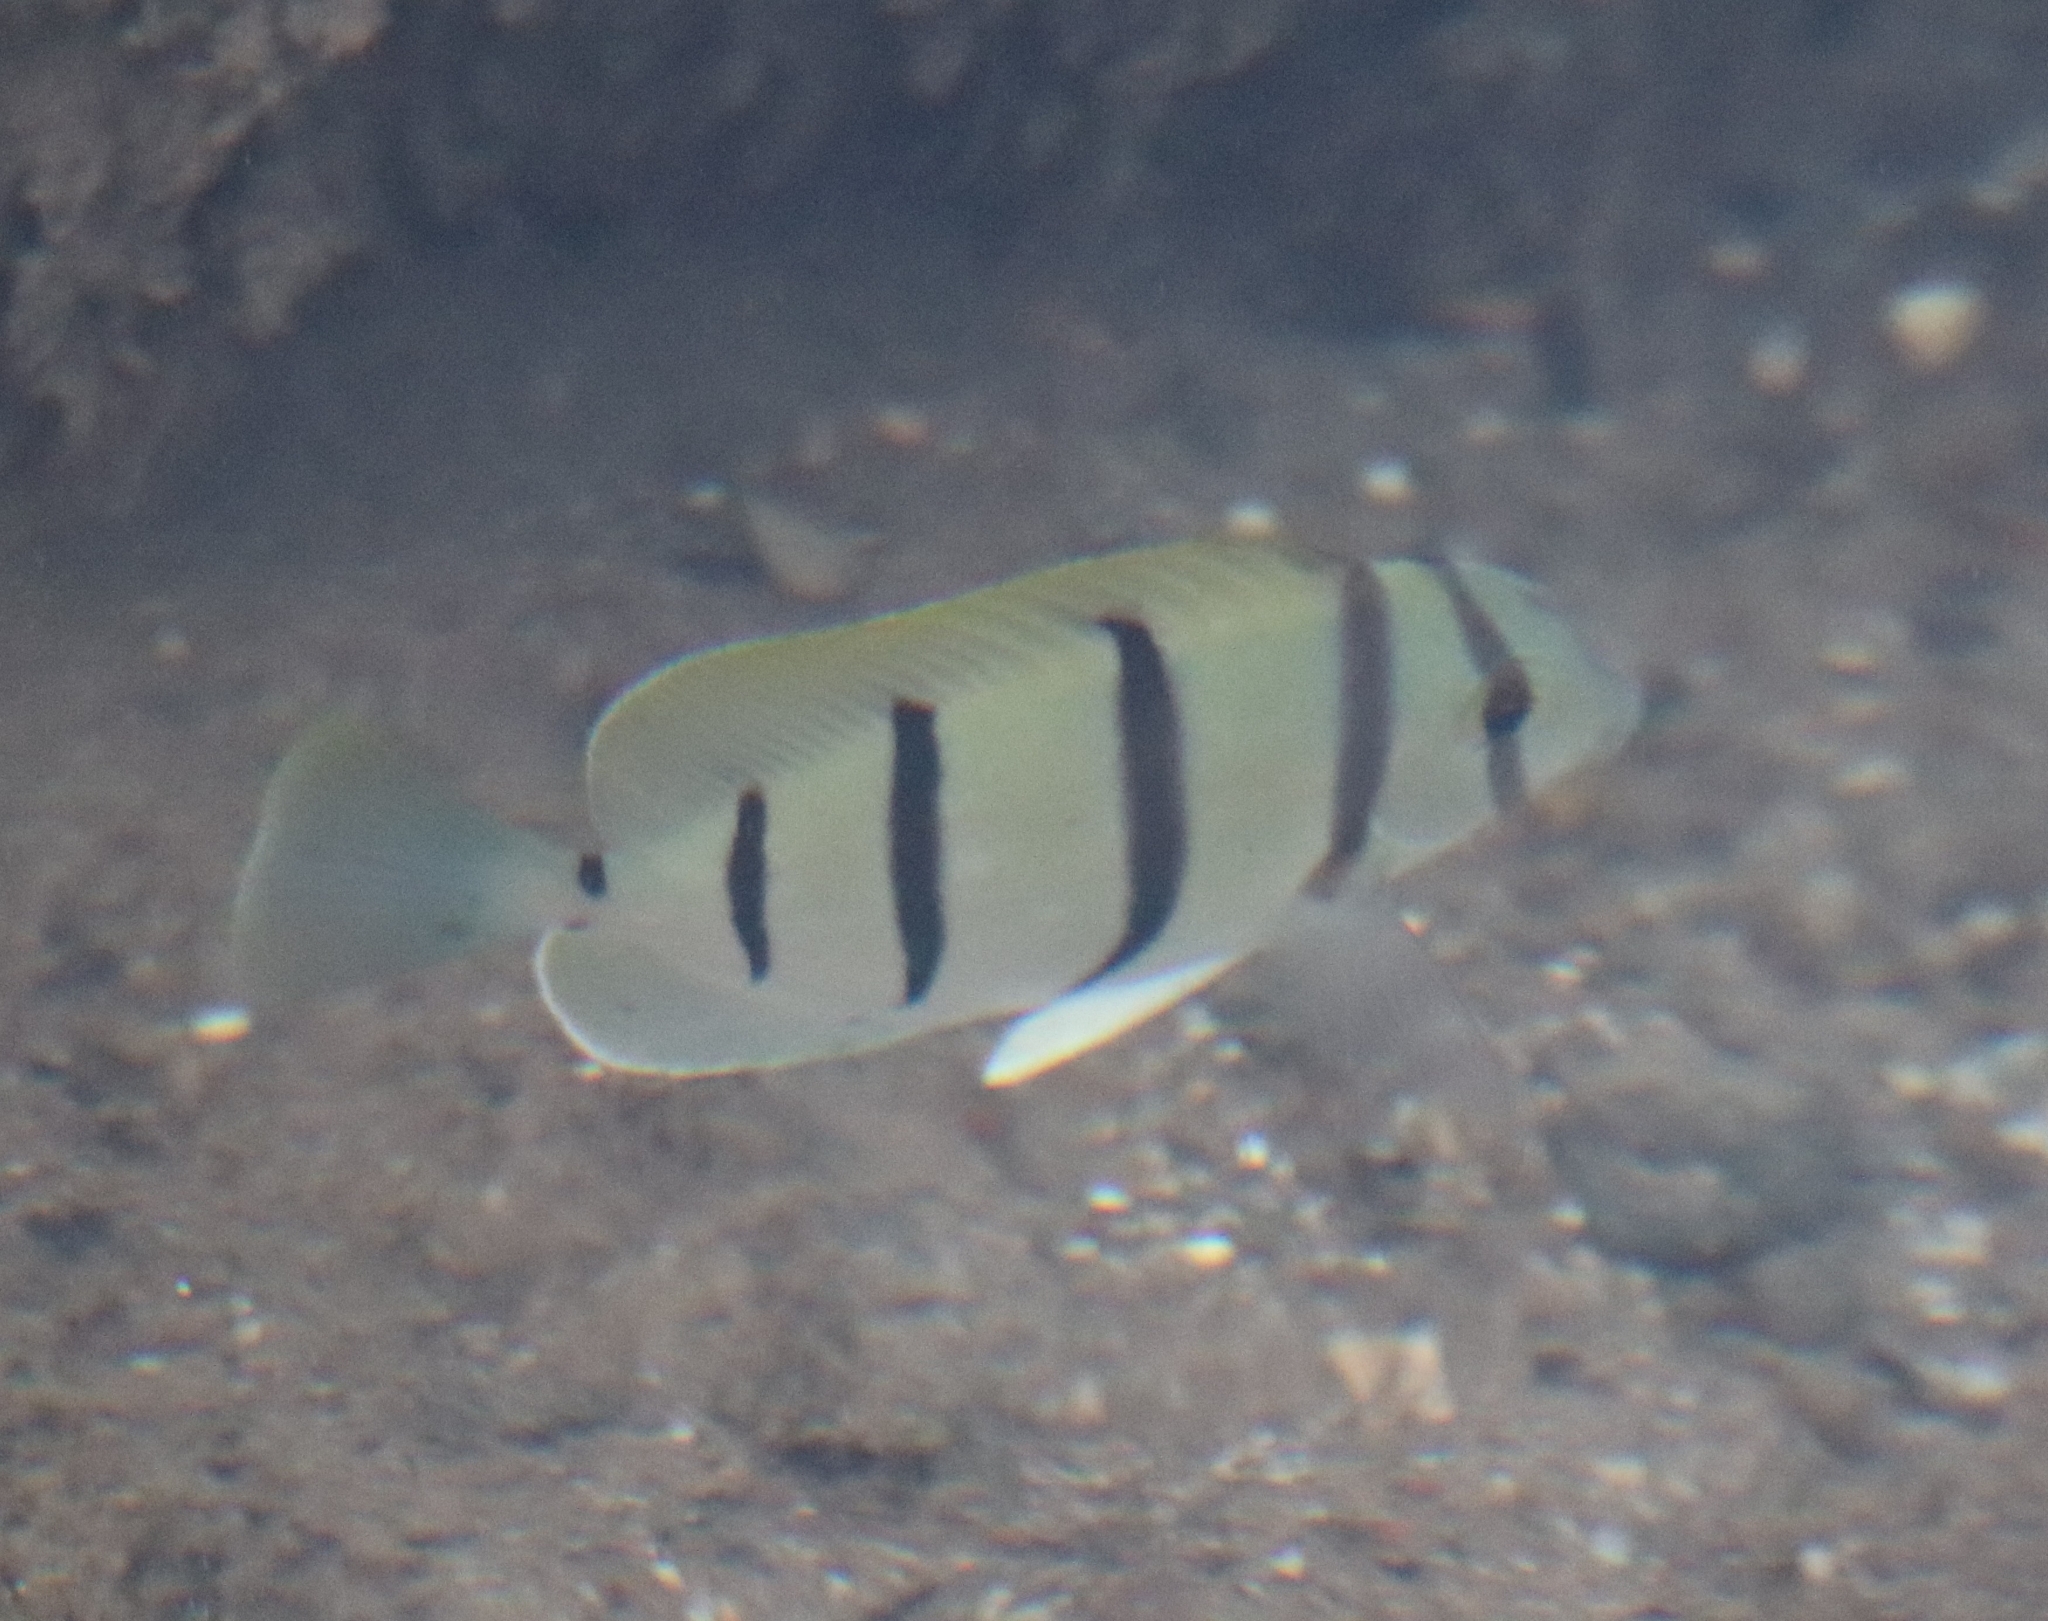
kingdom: Animalia
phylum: Chordata
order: Perciformes
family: Acanthuridae
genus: Acanthurus
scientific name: Acanthurus triostegus
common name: Convict surgeonfish
